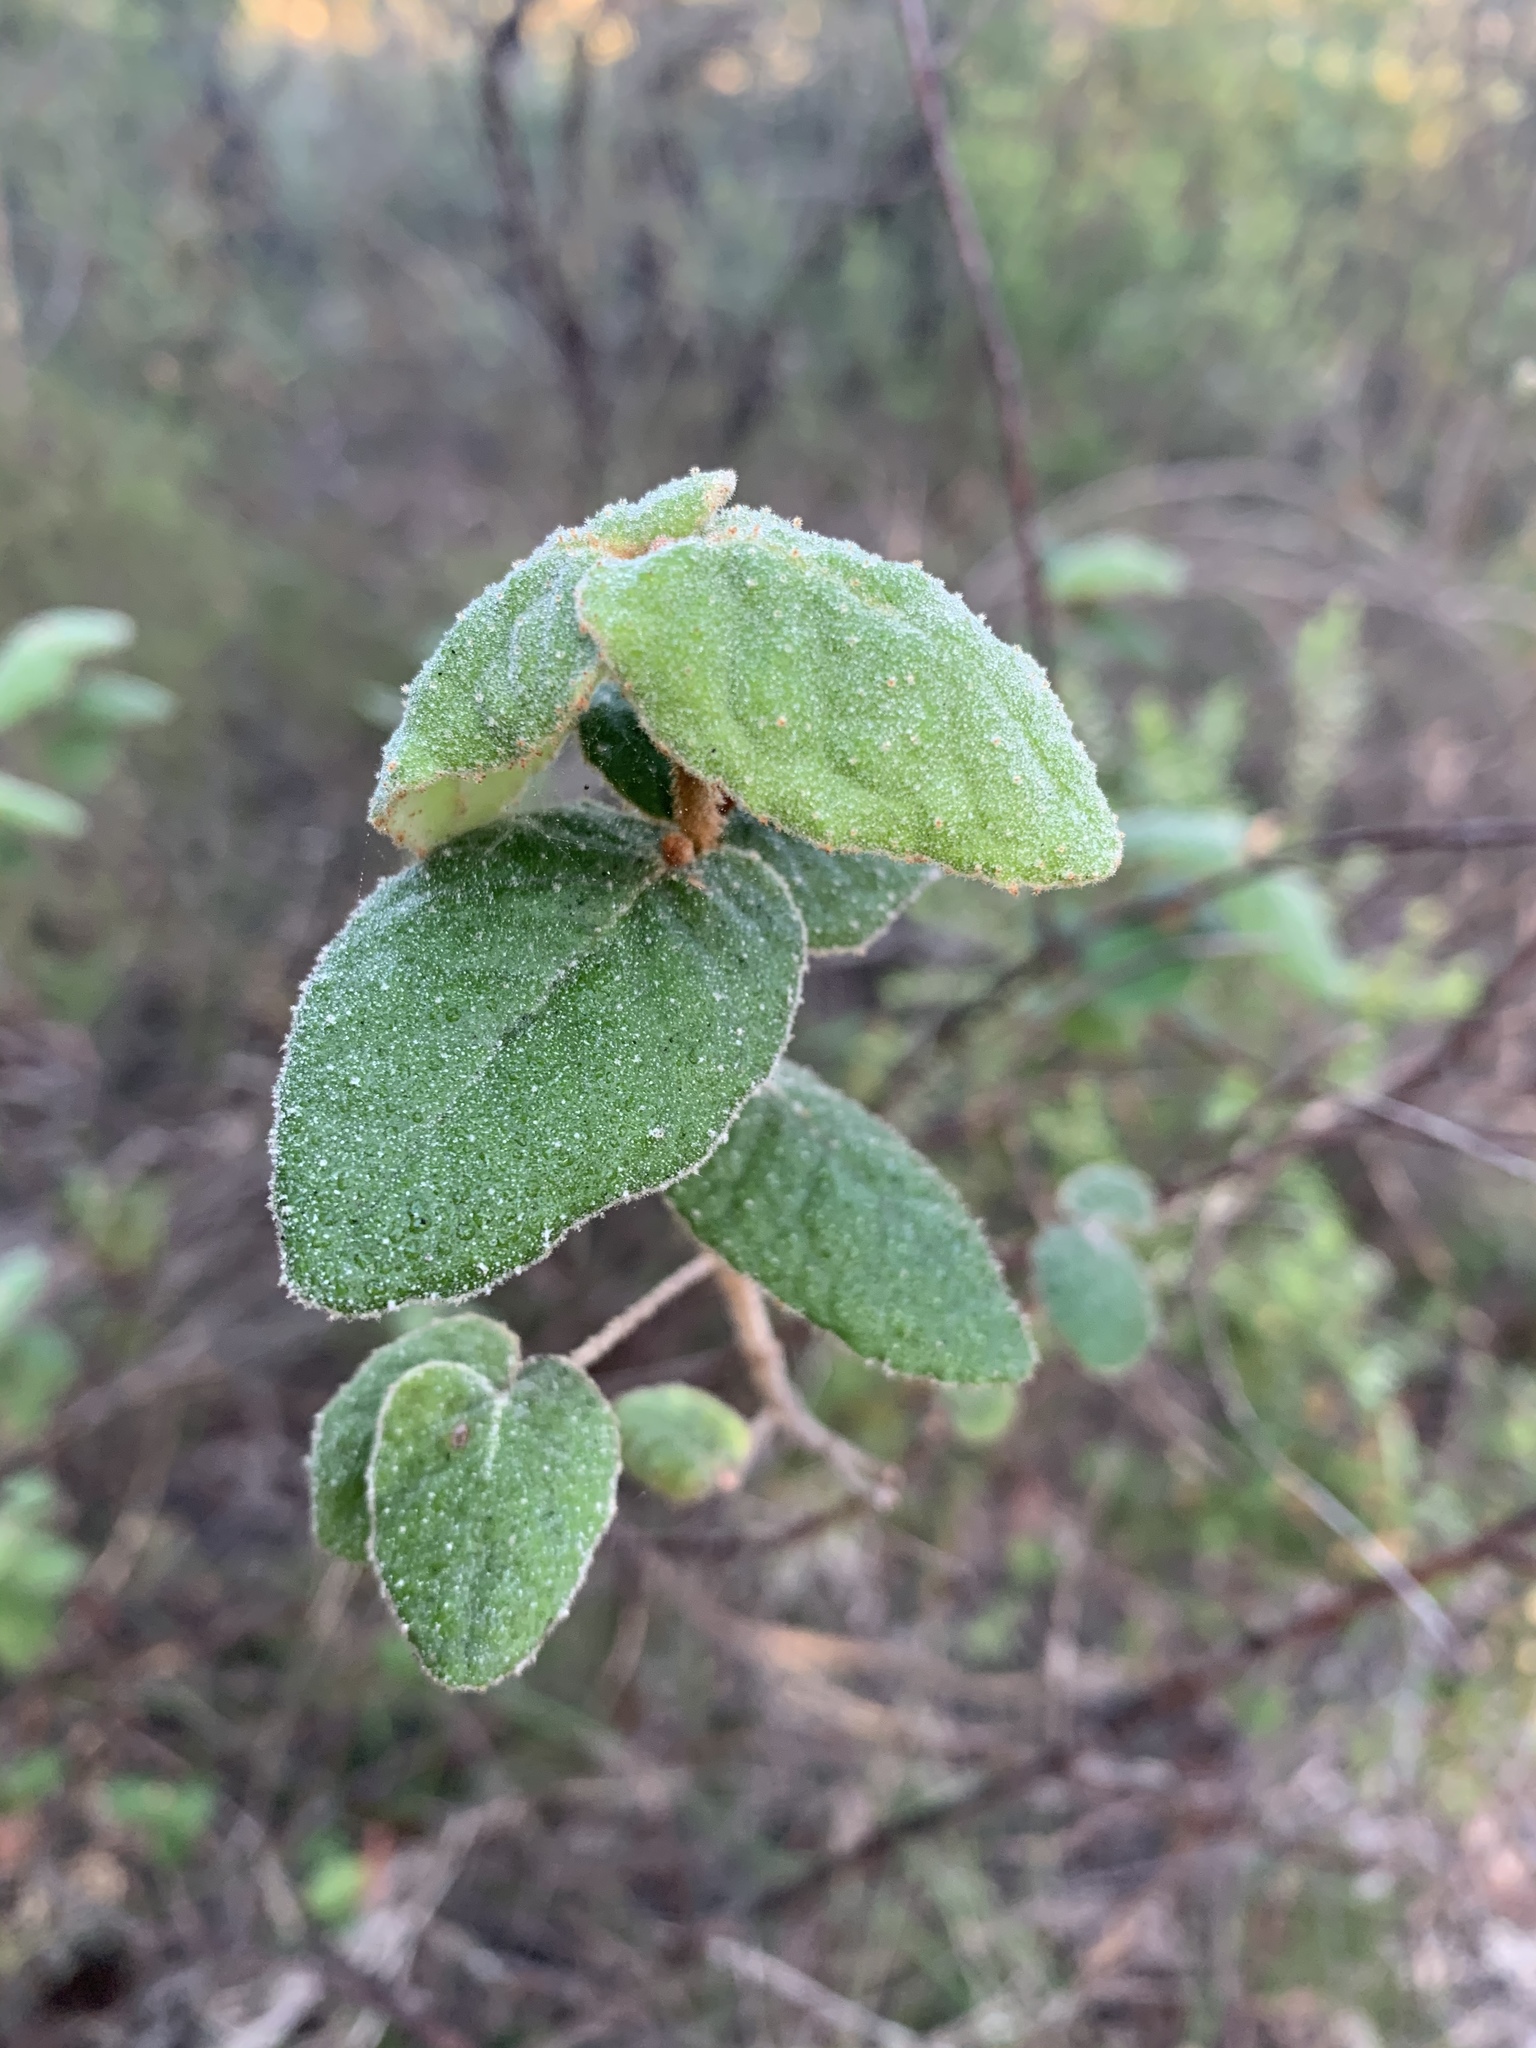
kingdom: Plantae
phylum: Tracheophyta
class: Magnoliopsida
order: Sapindales
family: Rutaceae
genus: Correa
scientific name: Correa reflexa
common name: Common correa
